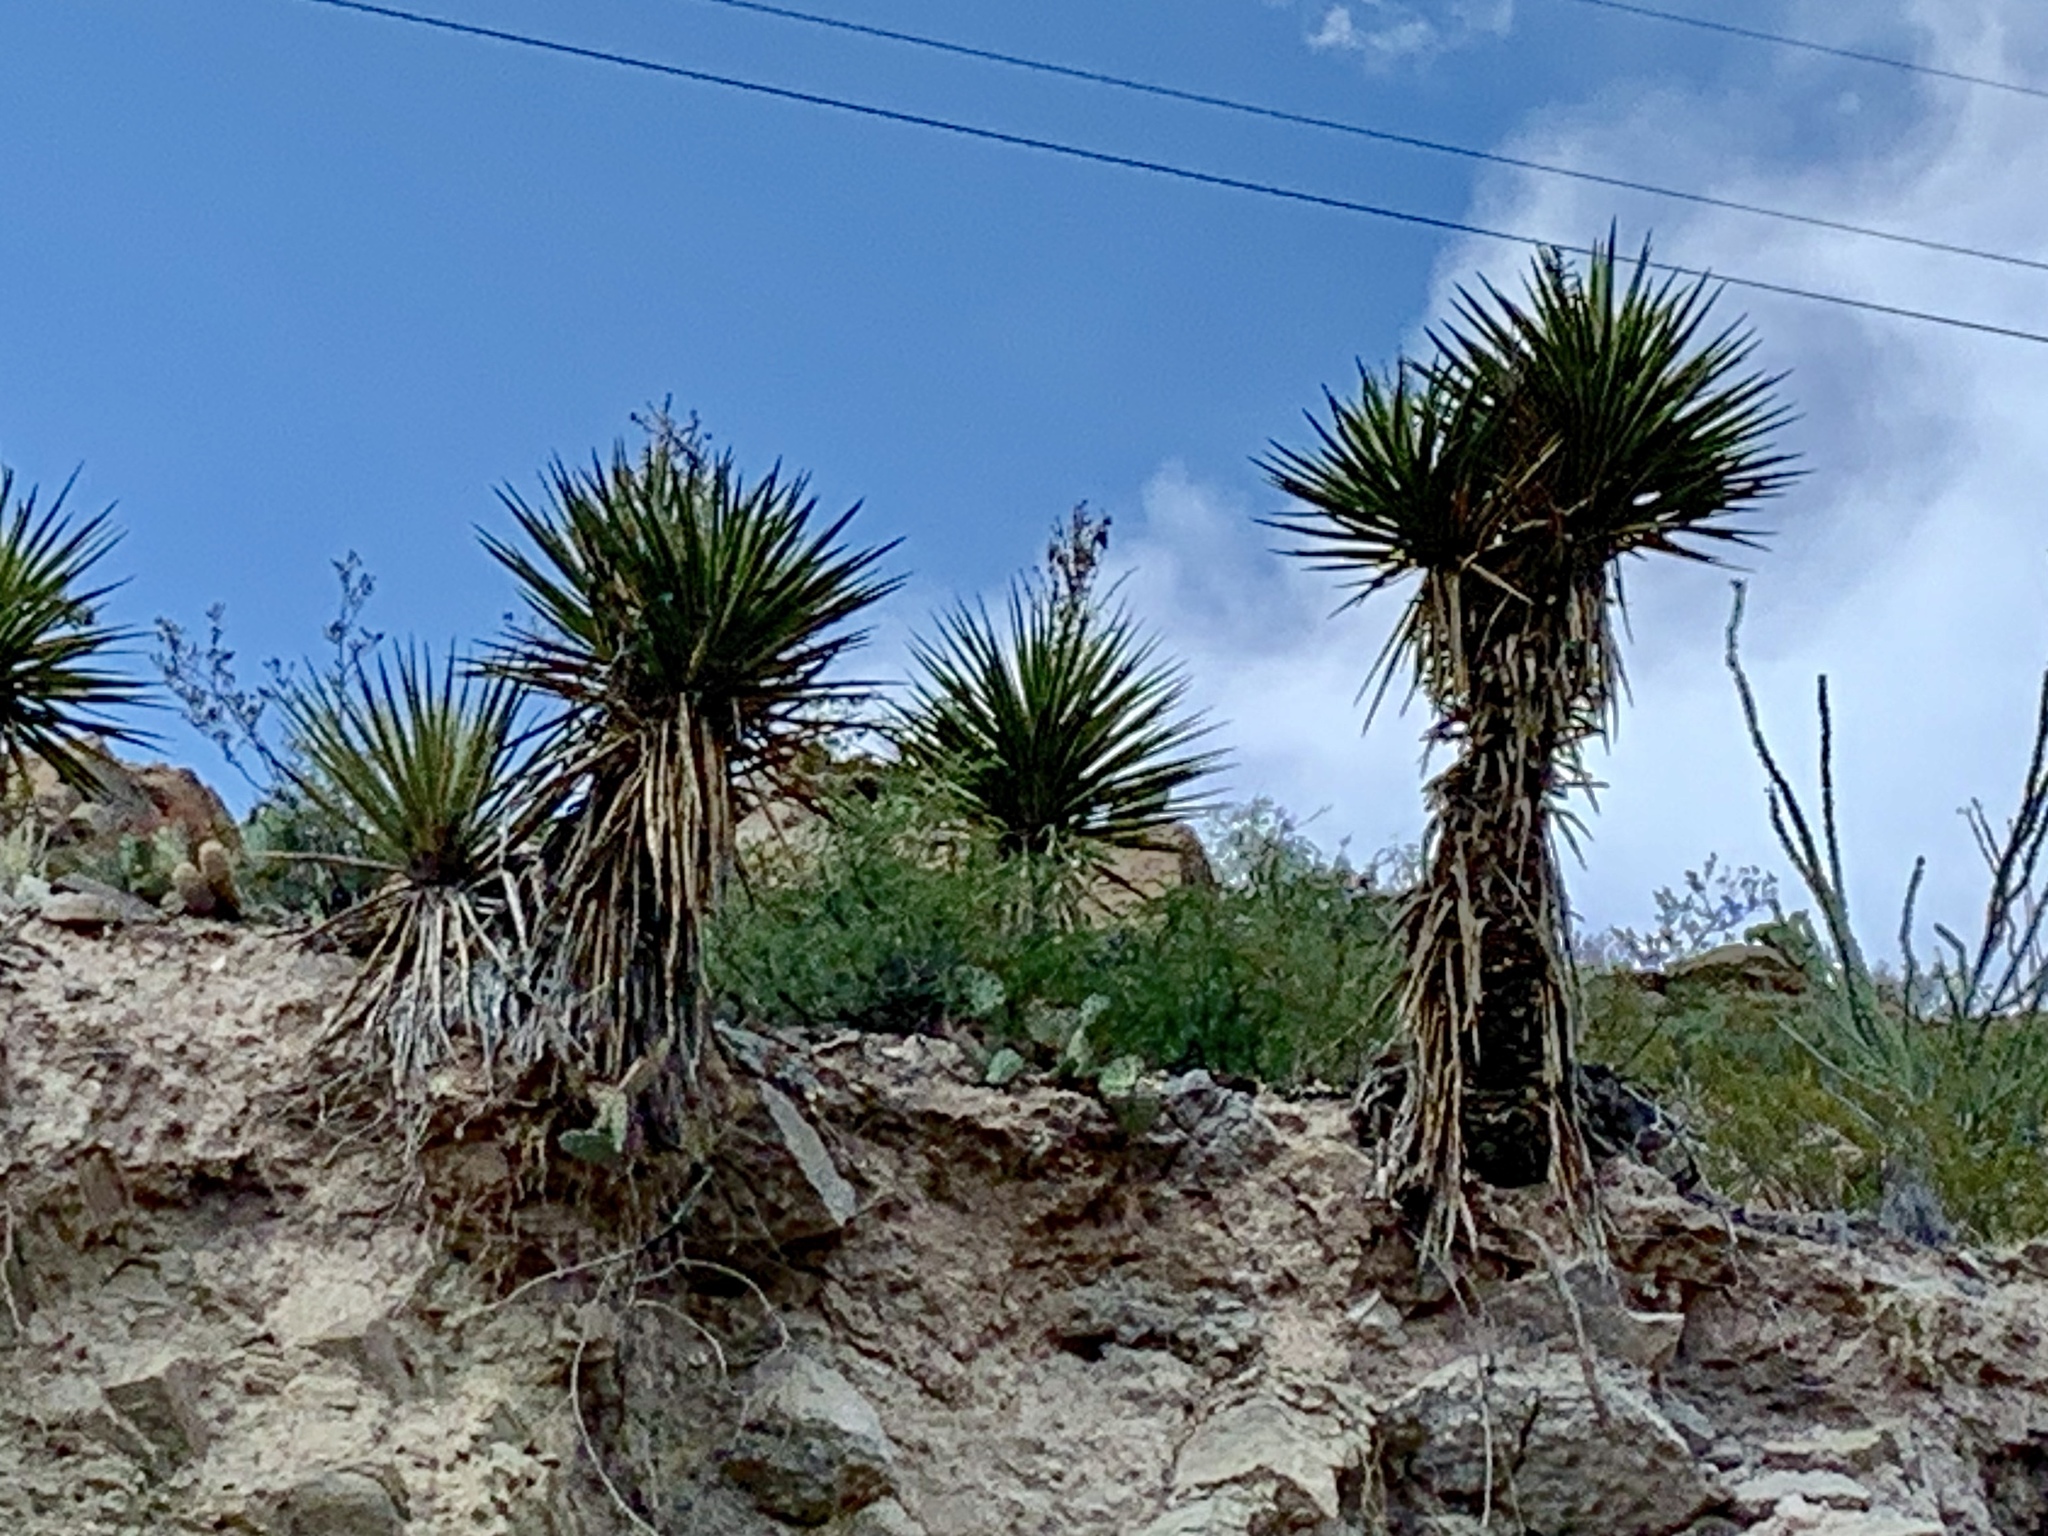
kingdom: Plantae
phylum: Tracheophyta
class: Liliopsida
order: Asparagales
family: Asparagaceae
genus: Yucca
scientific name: Yucca treculiana
